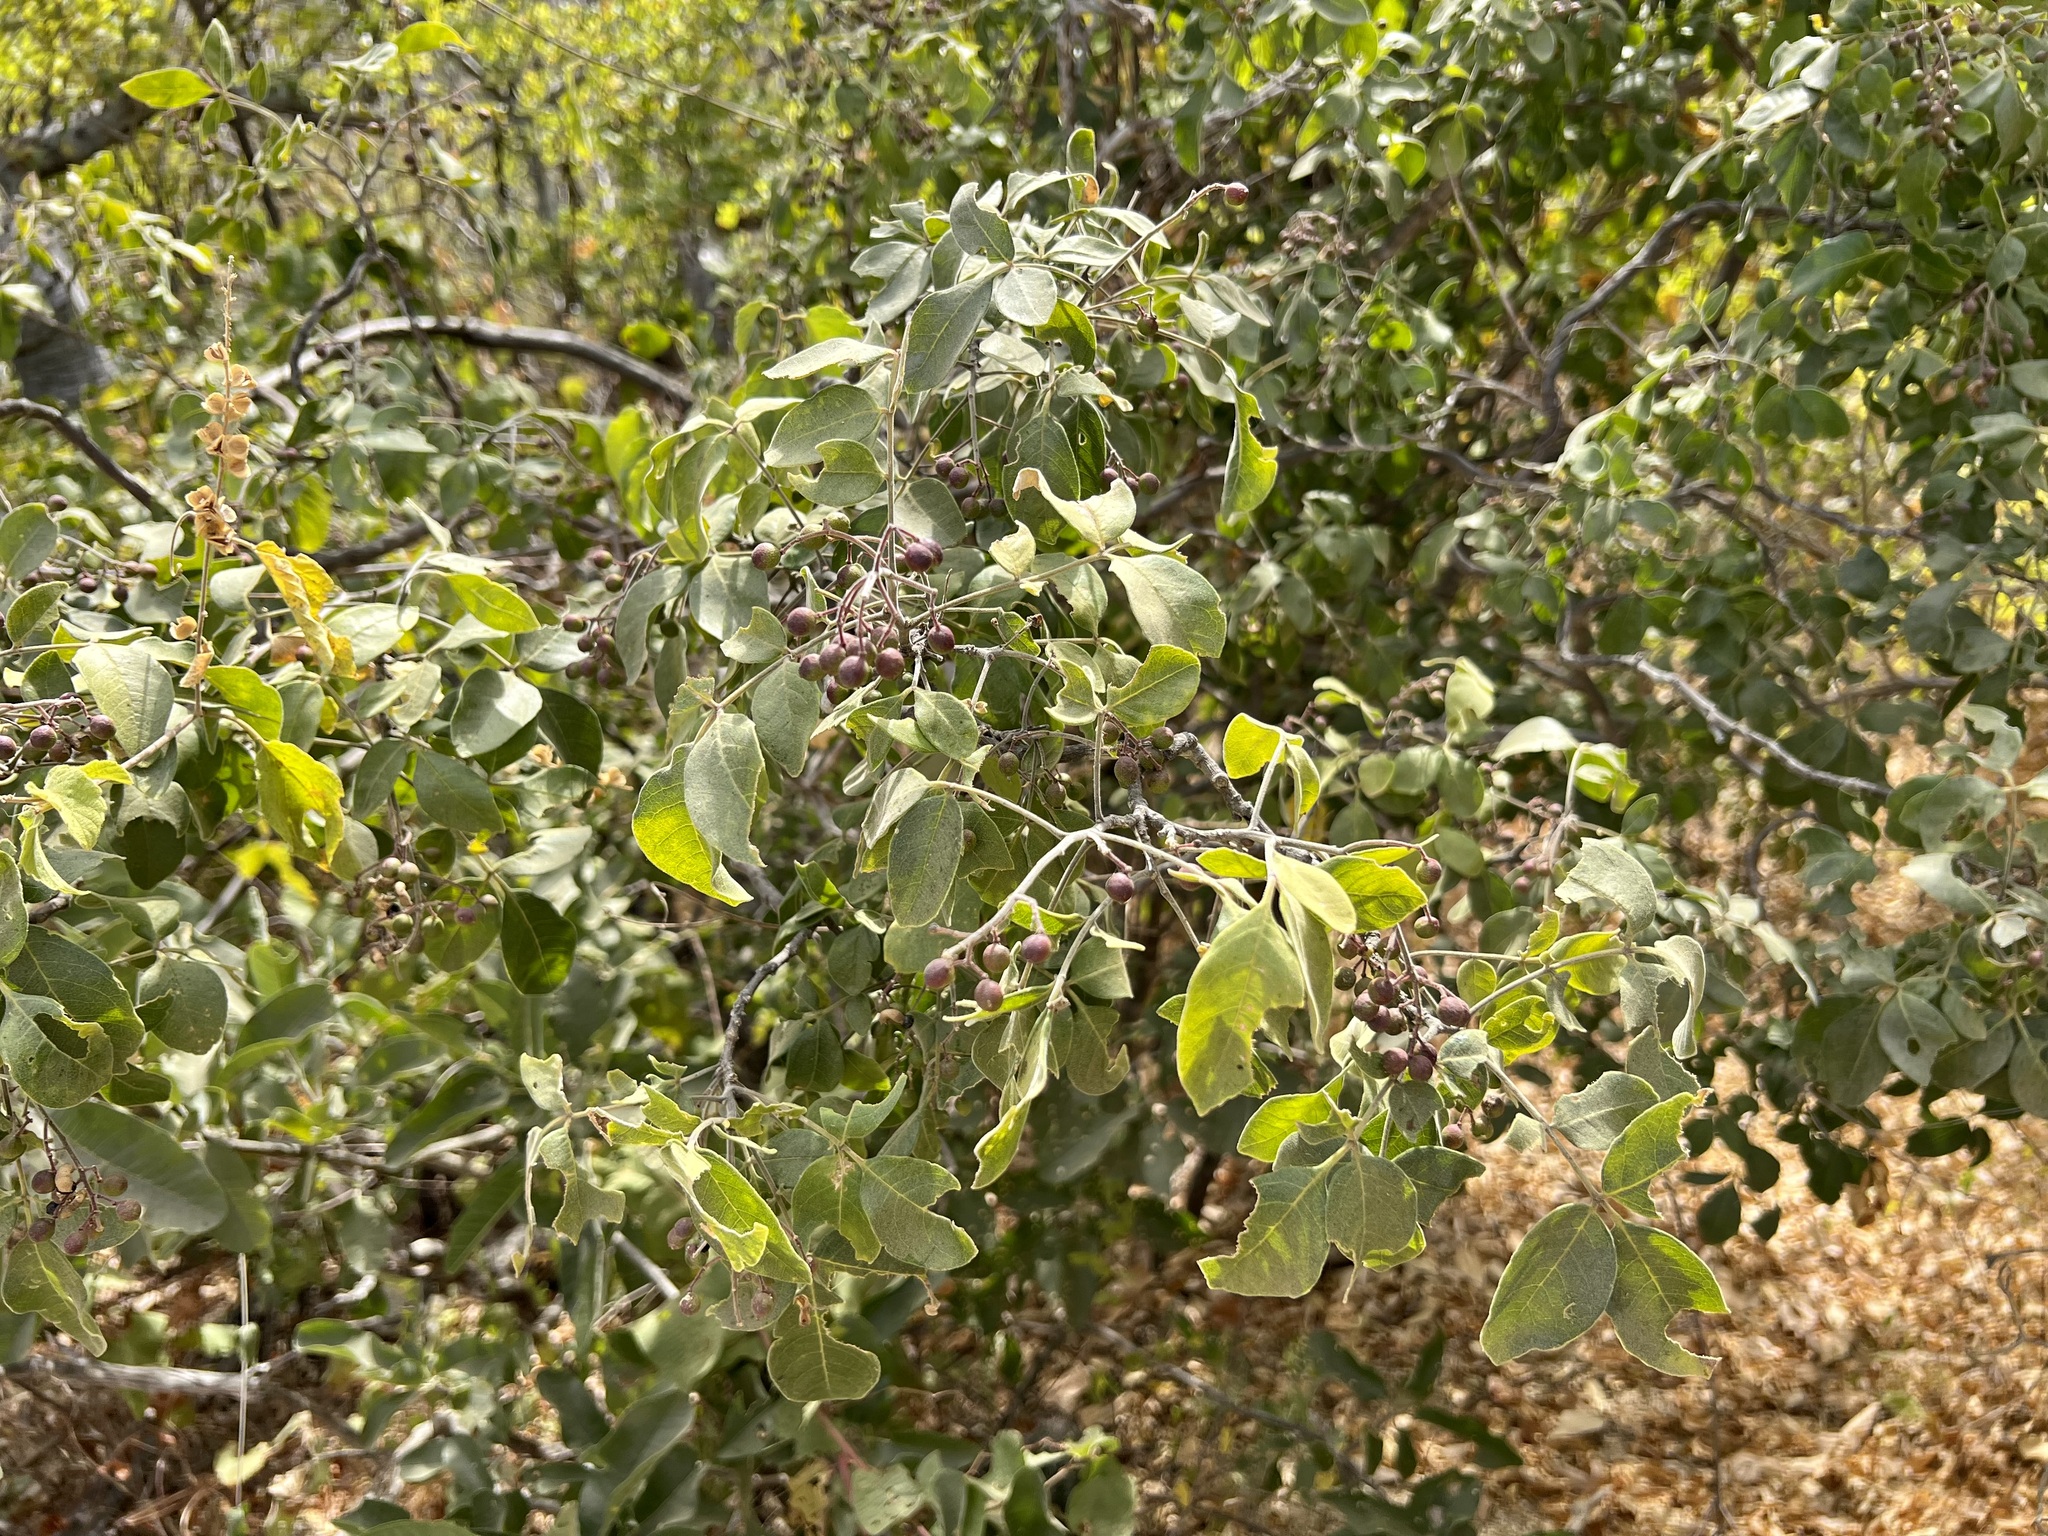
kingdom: Plantae
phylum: Tracheophyta
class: Magnoliopsida
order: Sapindales
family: Rutaceae
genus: Zanthoxylum
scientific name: Zanthoxylum arborescens
